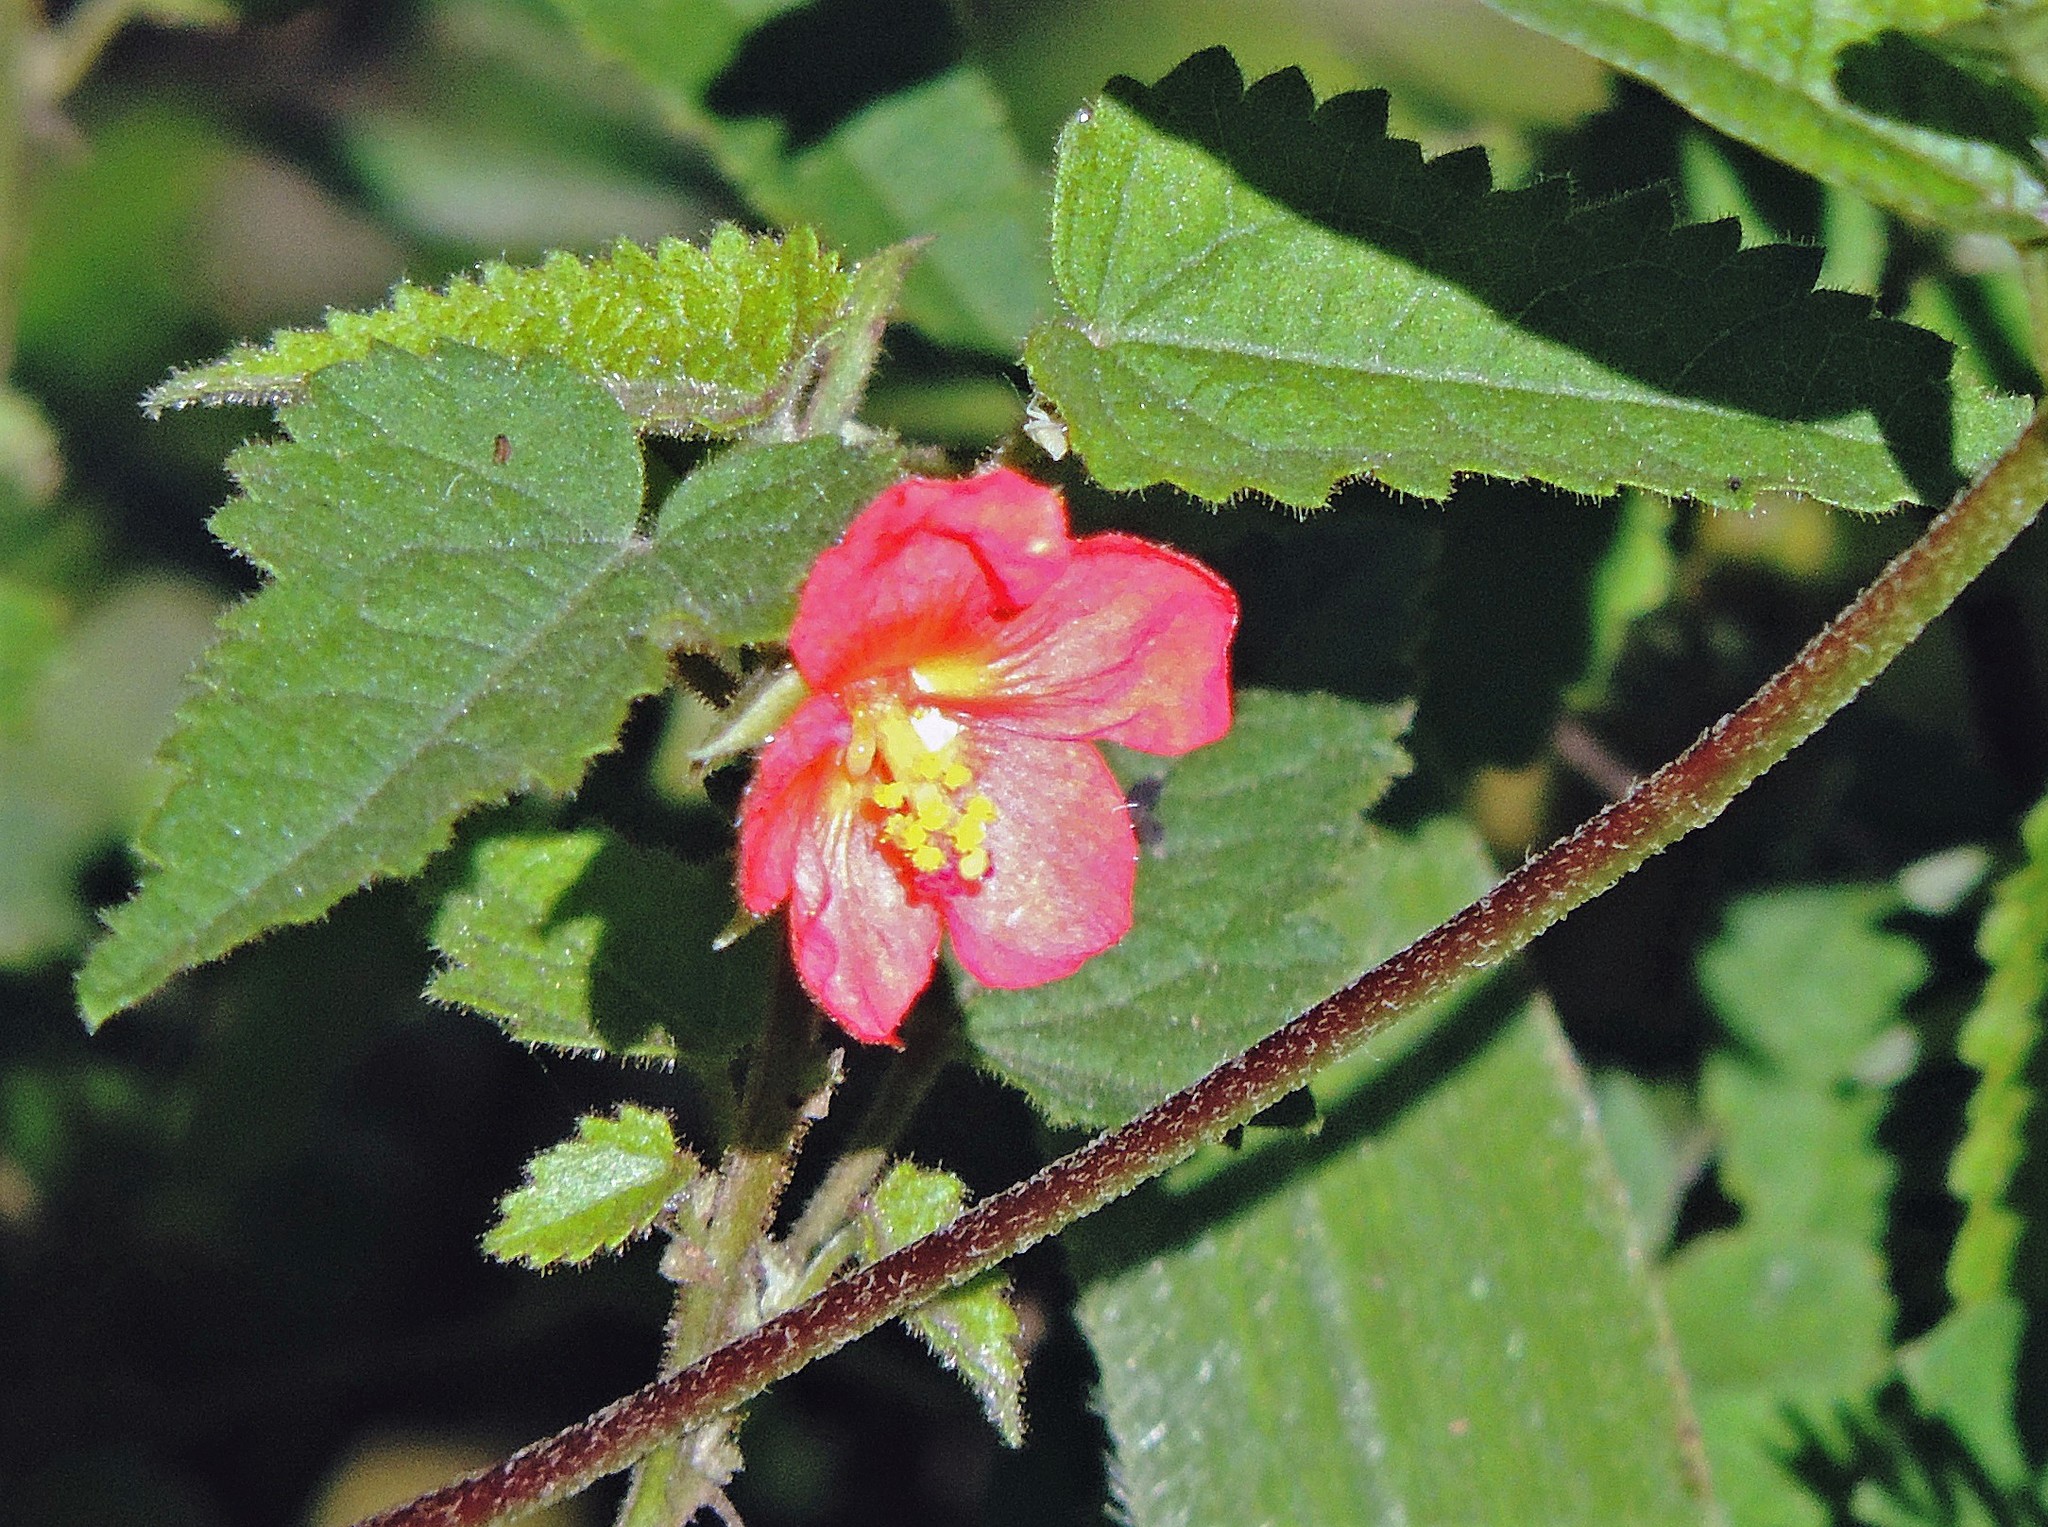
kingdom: Plantae
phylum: Tracheophyta
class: Magnoliopsida
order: Malvales
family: Malvaceae
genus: Pavonia
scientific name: Pavonia missionum
